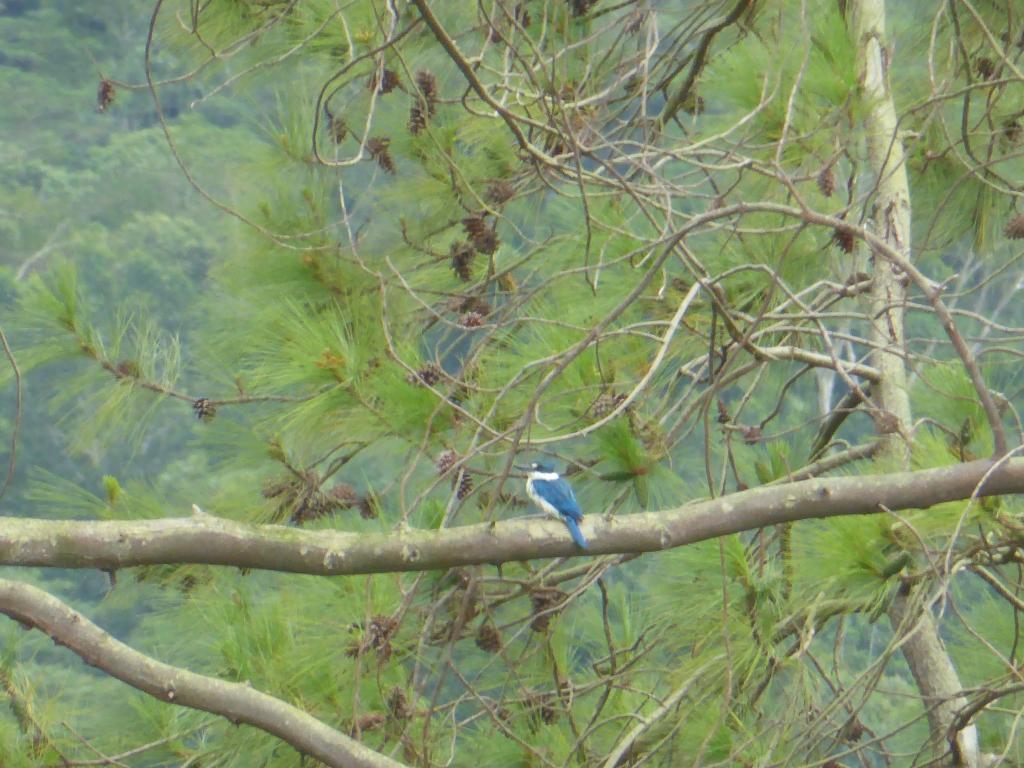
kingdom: Animalia
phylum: Chordata
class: Aves
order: Coraciiformes
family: Alcedinidae
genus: Todiramphus
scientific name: Todiramphus chloris
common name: Collared kingfisher
